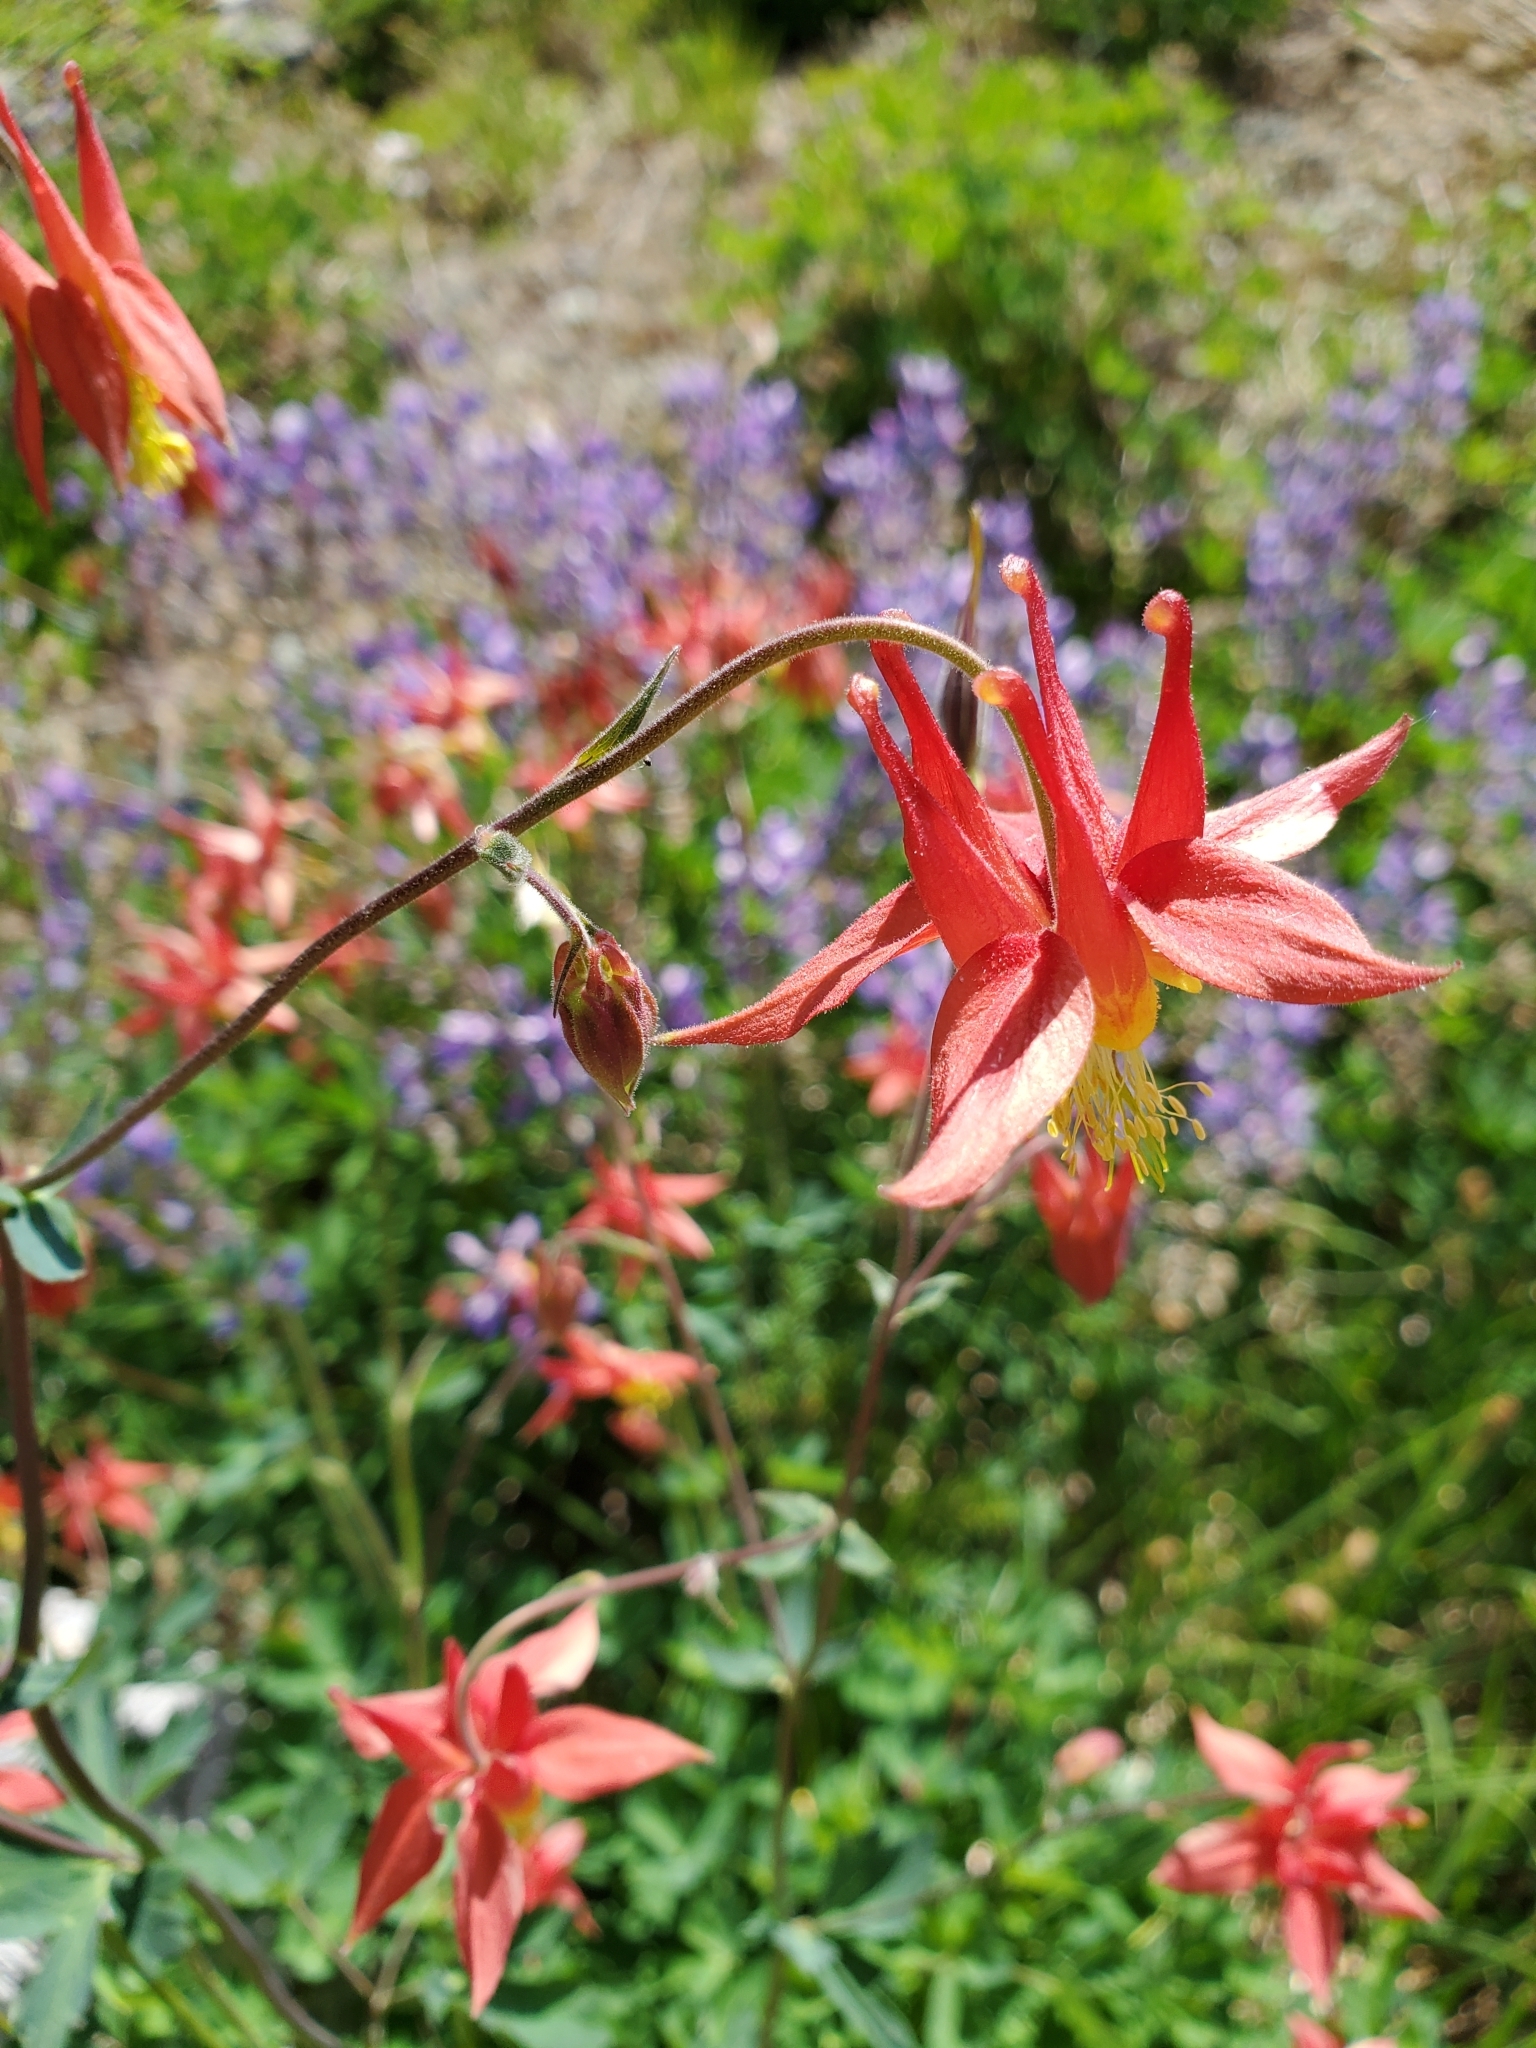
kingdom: Plantae
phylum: Tracheophyta
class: Magnoliopsida
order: Ranunculales
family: Ranunculaceae
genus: Aquilegia
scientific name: Aquilegia formosa
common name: Sitka columbine
